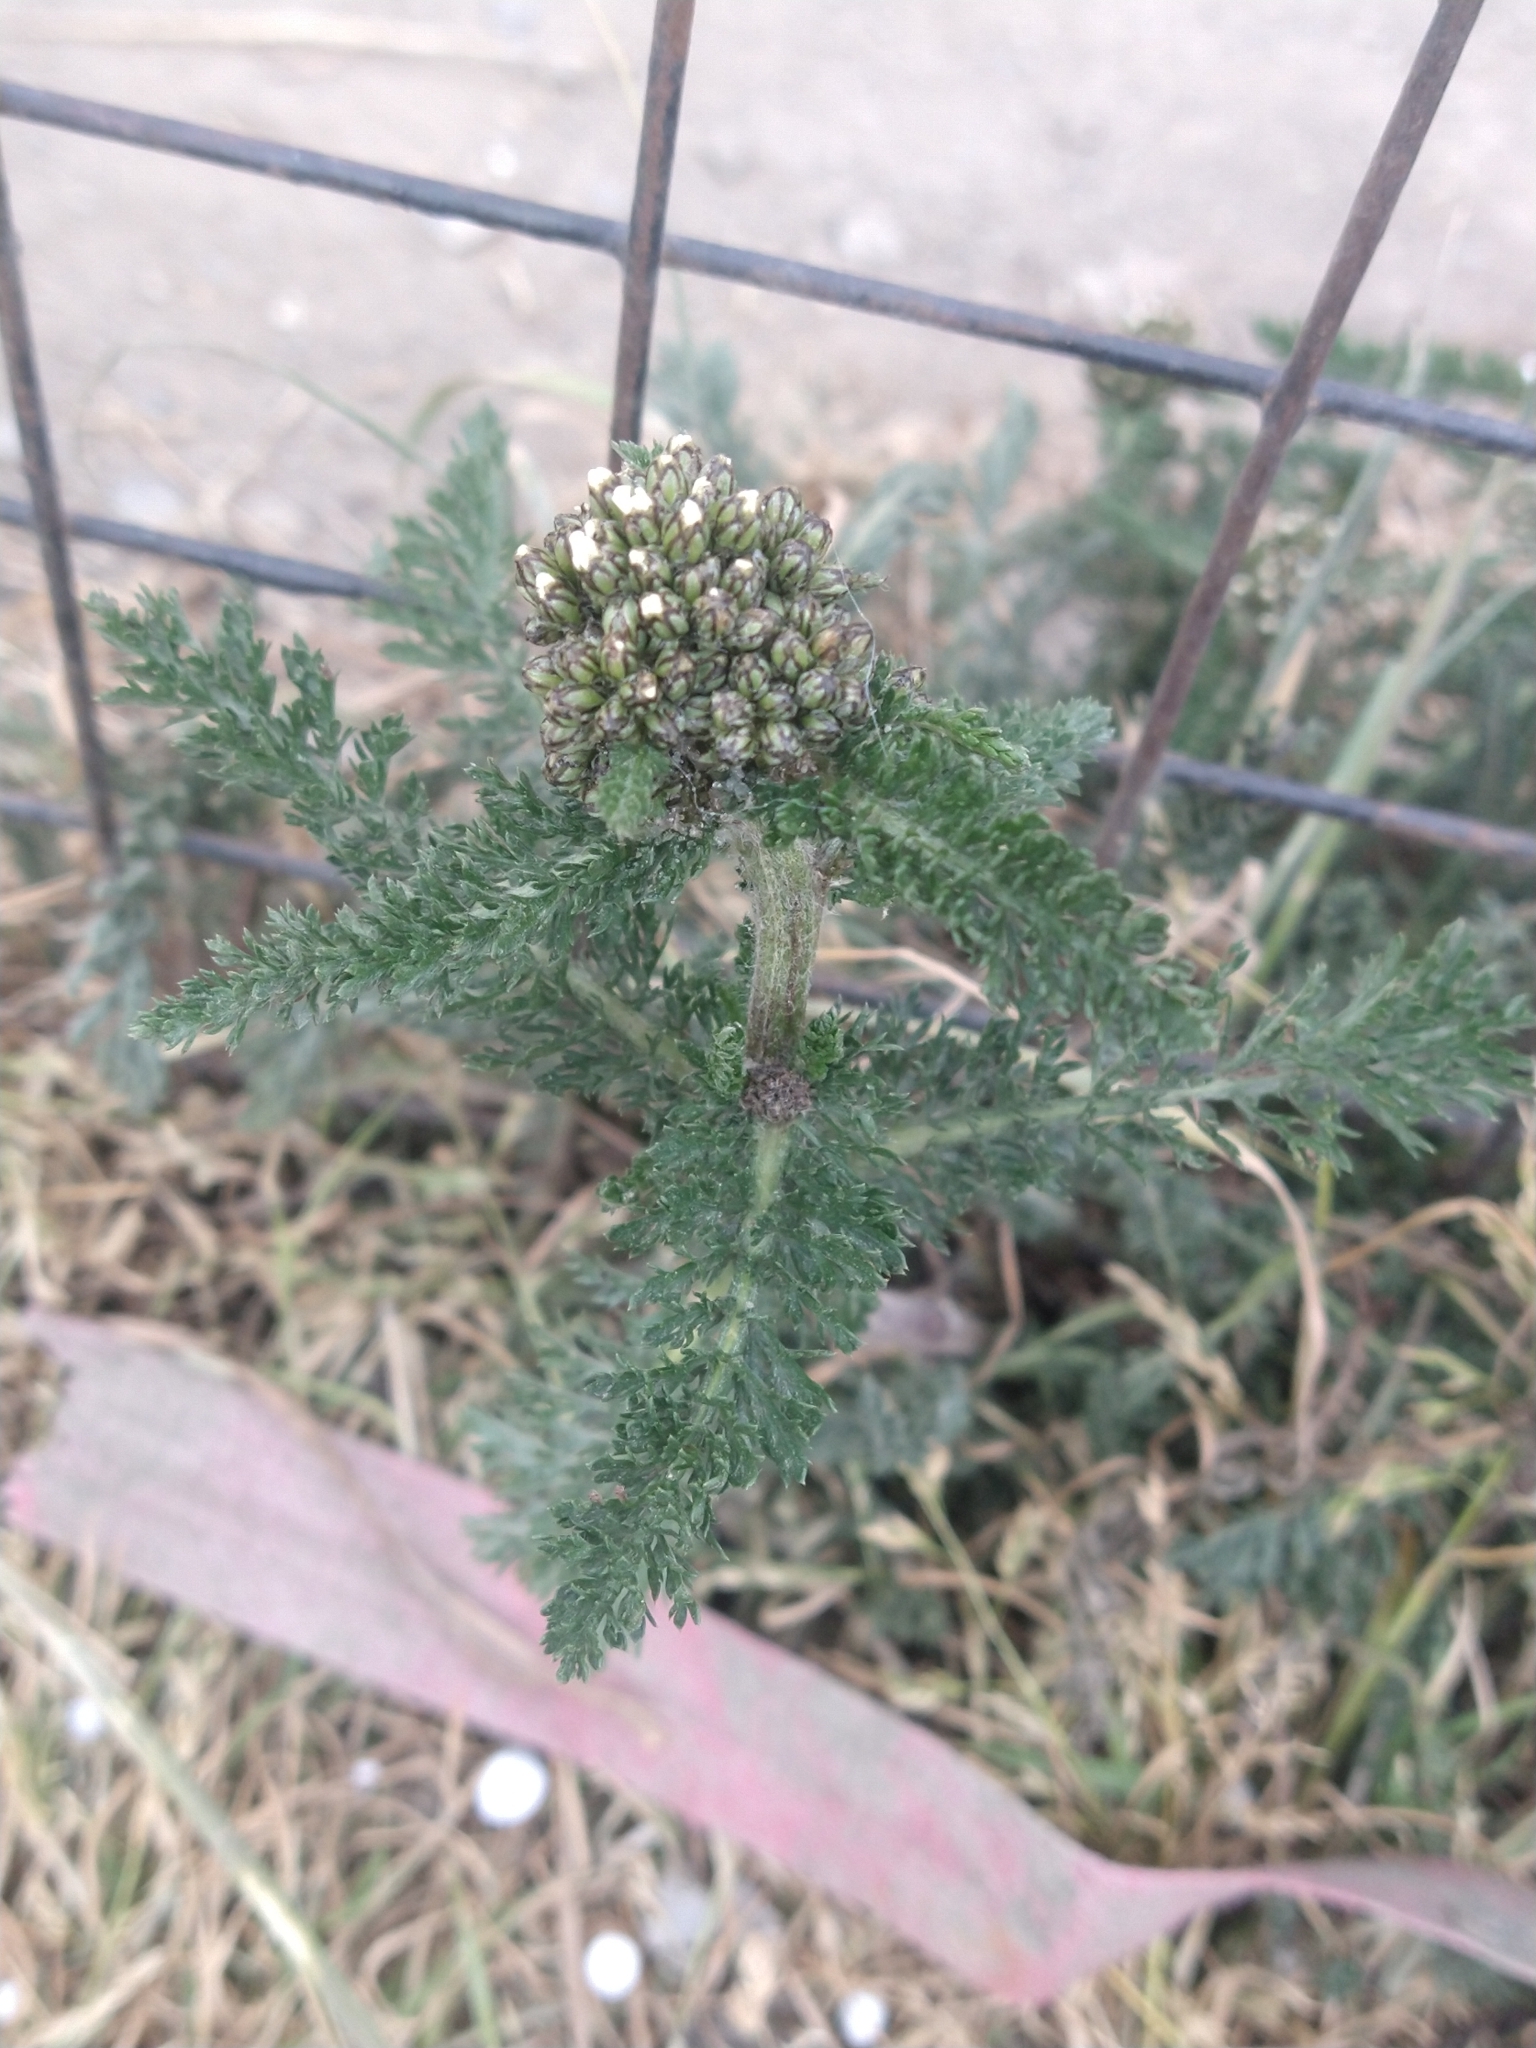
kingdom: Plantae
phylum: Tracheophyta
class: Magnoliopsida
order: Asterales
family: Asteraceae
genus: Achillea
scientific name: Achillea millefolium
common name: Yarrow
